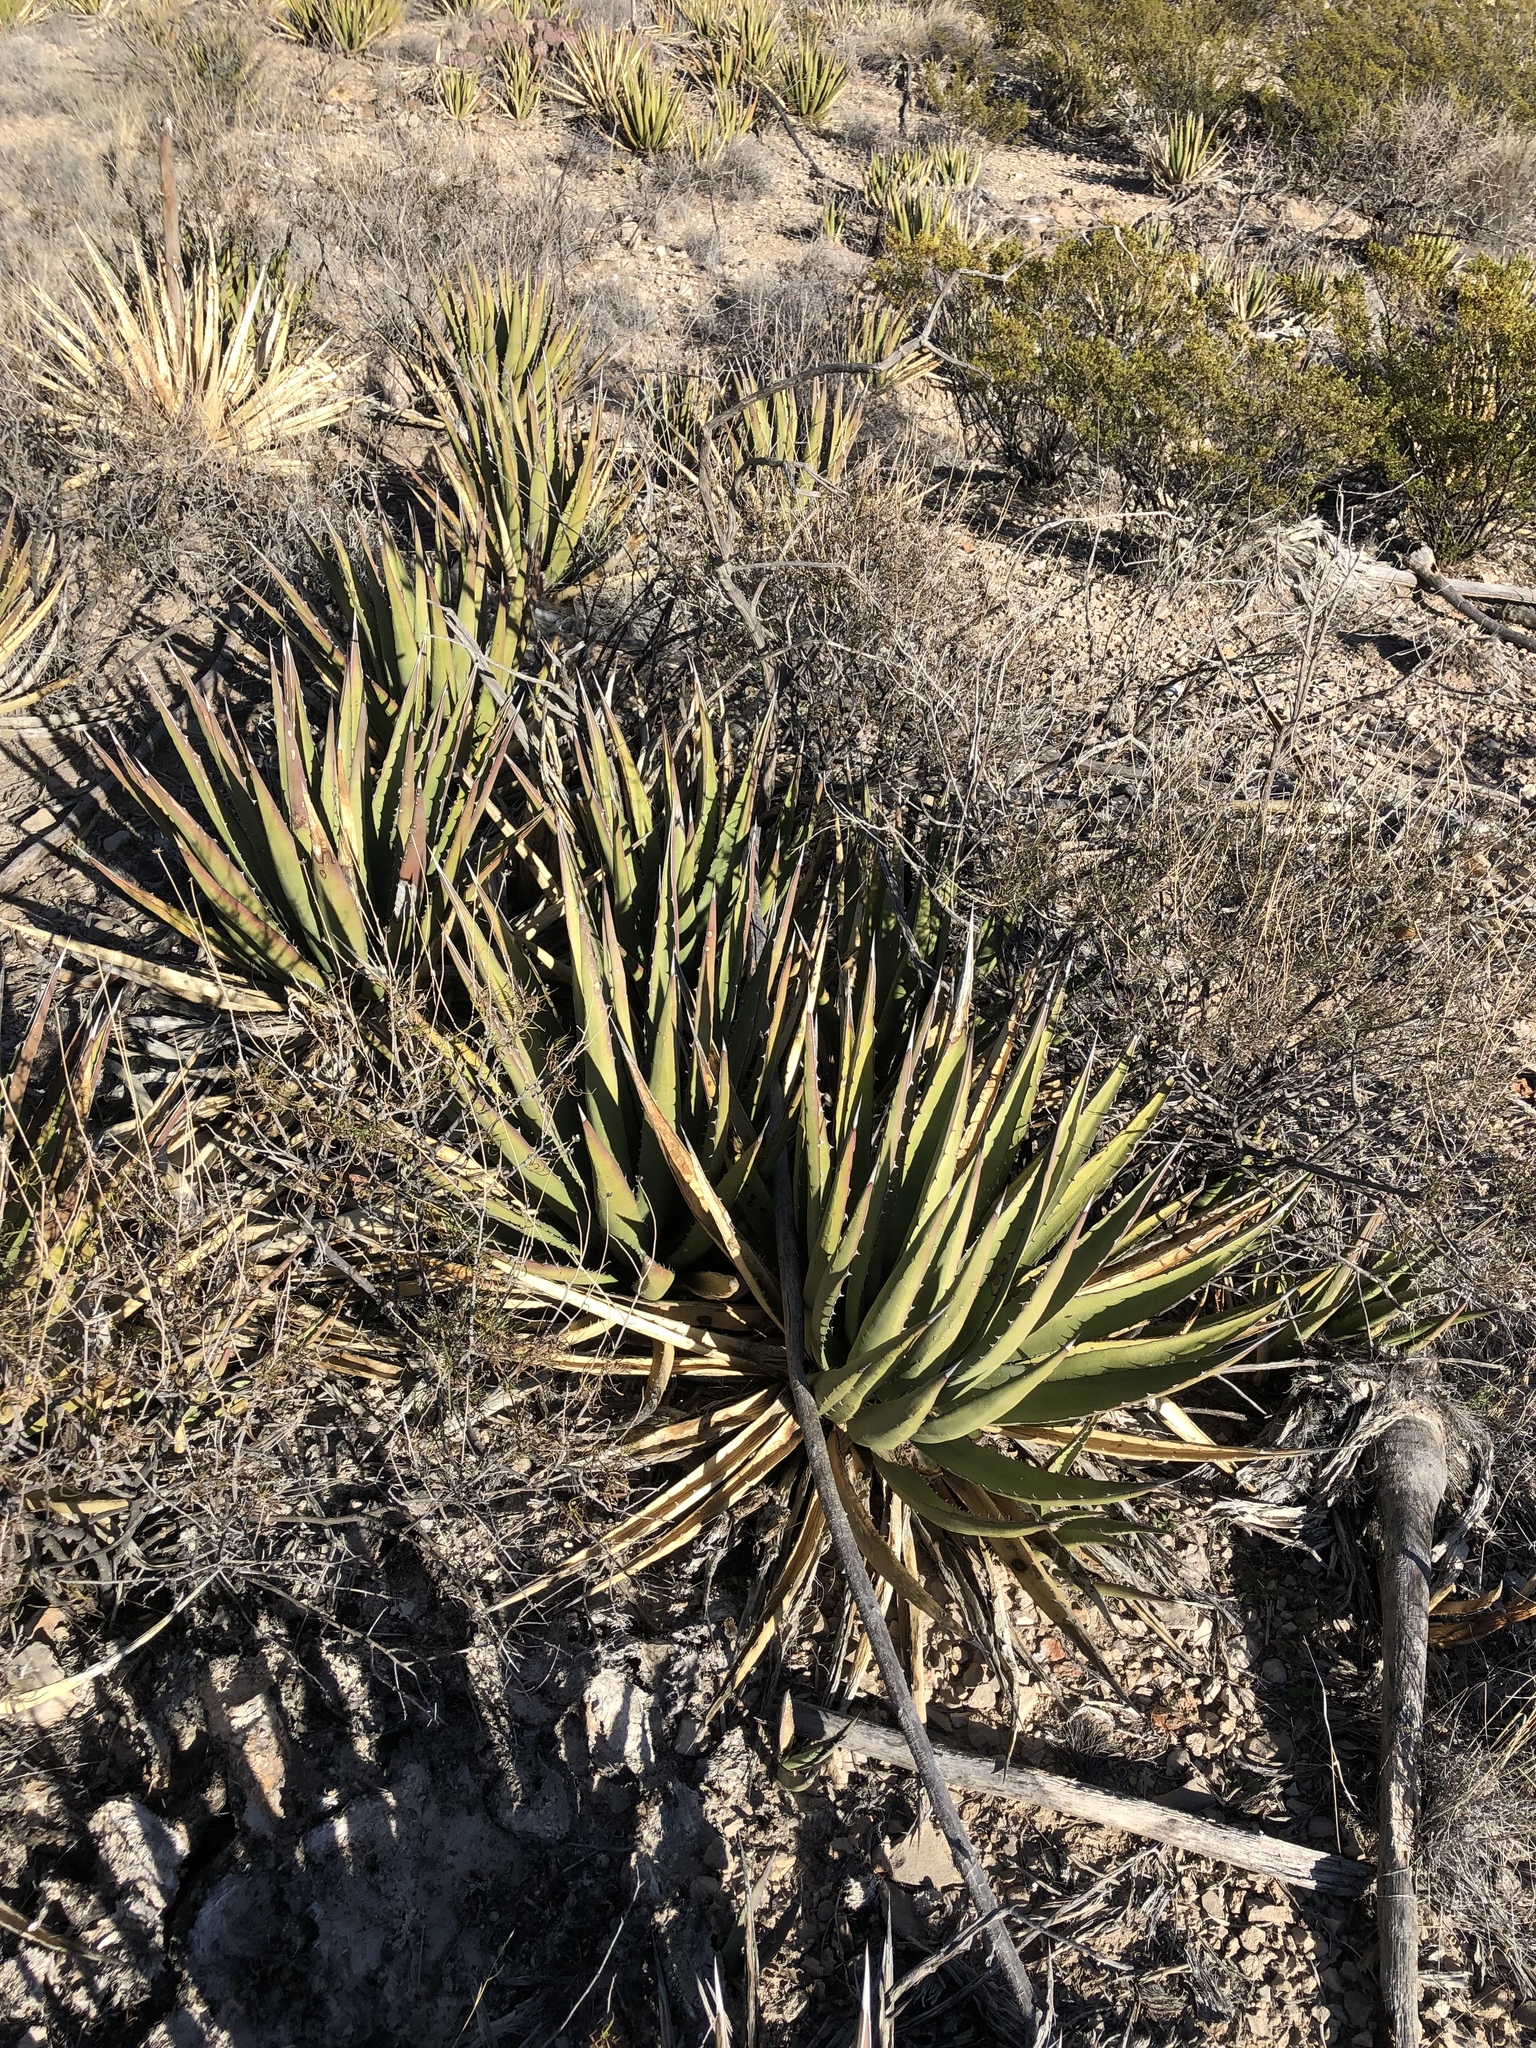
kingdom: Plantae
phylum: Tracheophyta
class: Liliopsida
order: Asparagales
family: Asparagaceae
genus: Agave
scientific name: Agave lechuguilla
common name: Lecheguilla agave
